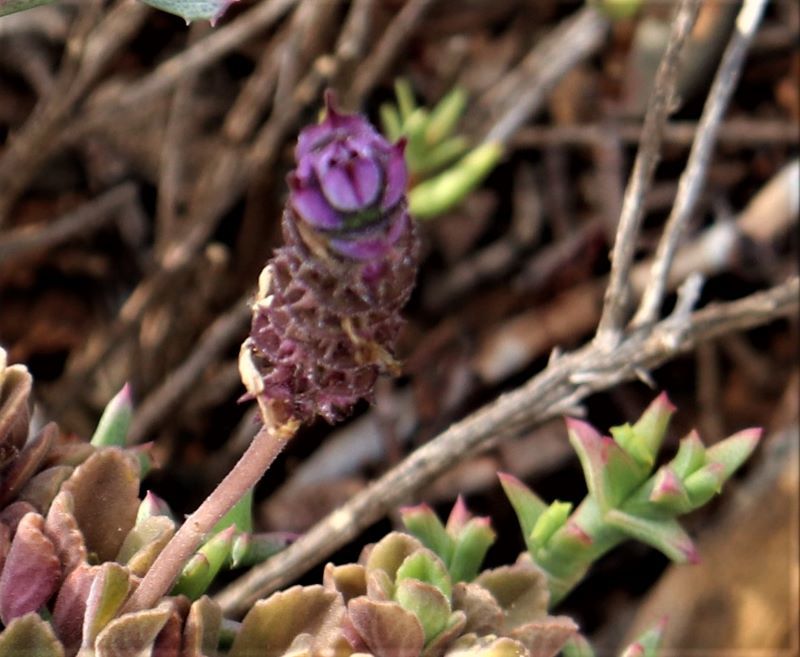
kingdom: Plantae
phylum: Tracheophyta
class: Magnoliopsida
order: Lamiales
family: Lamiaceae
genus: Coleus
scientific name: Coleus neochilus
